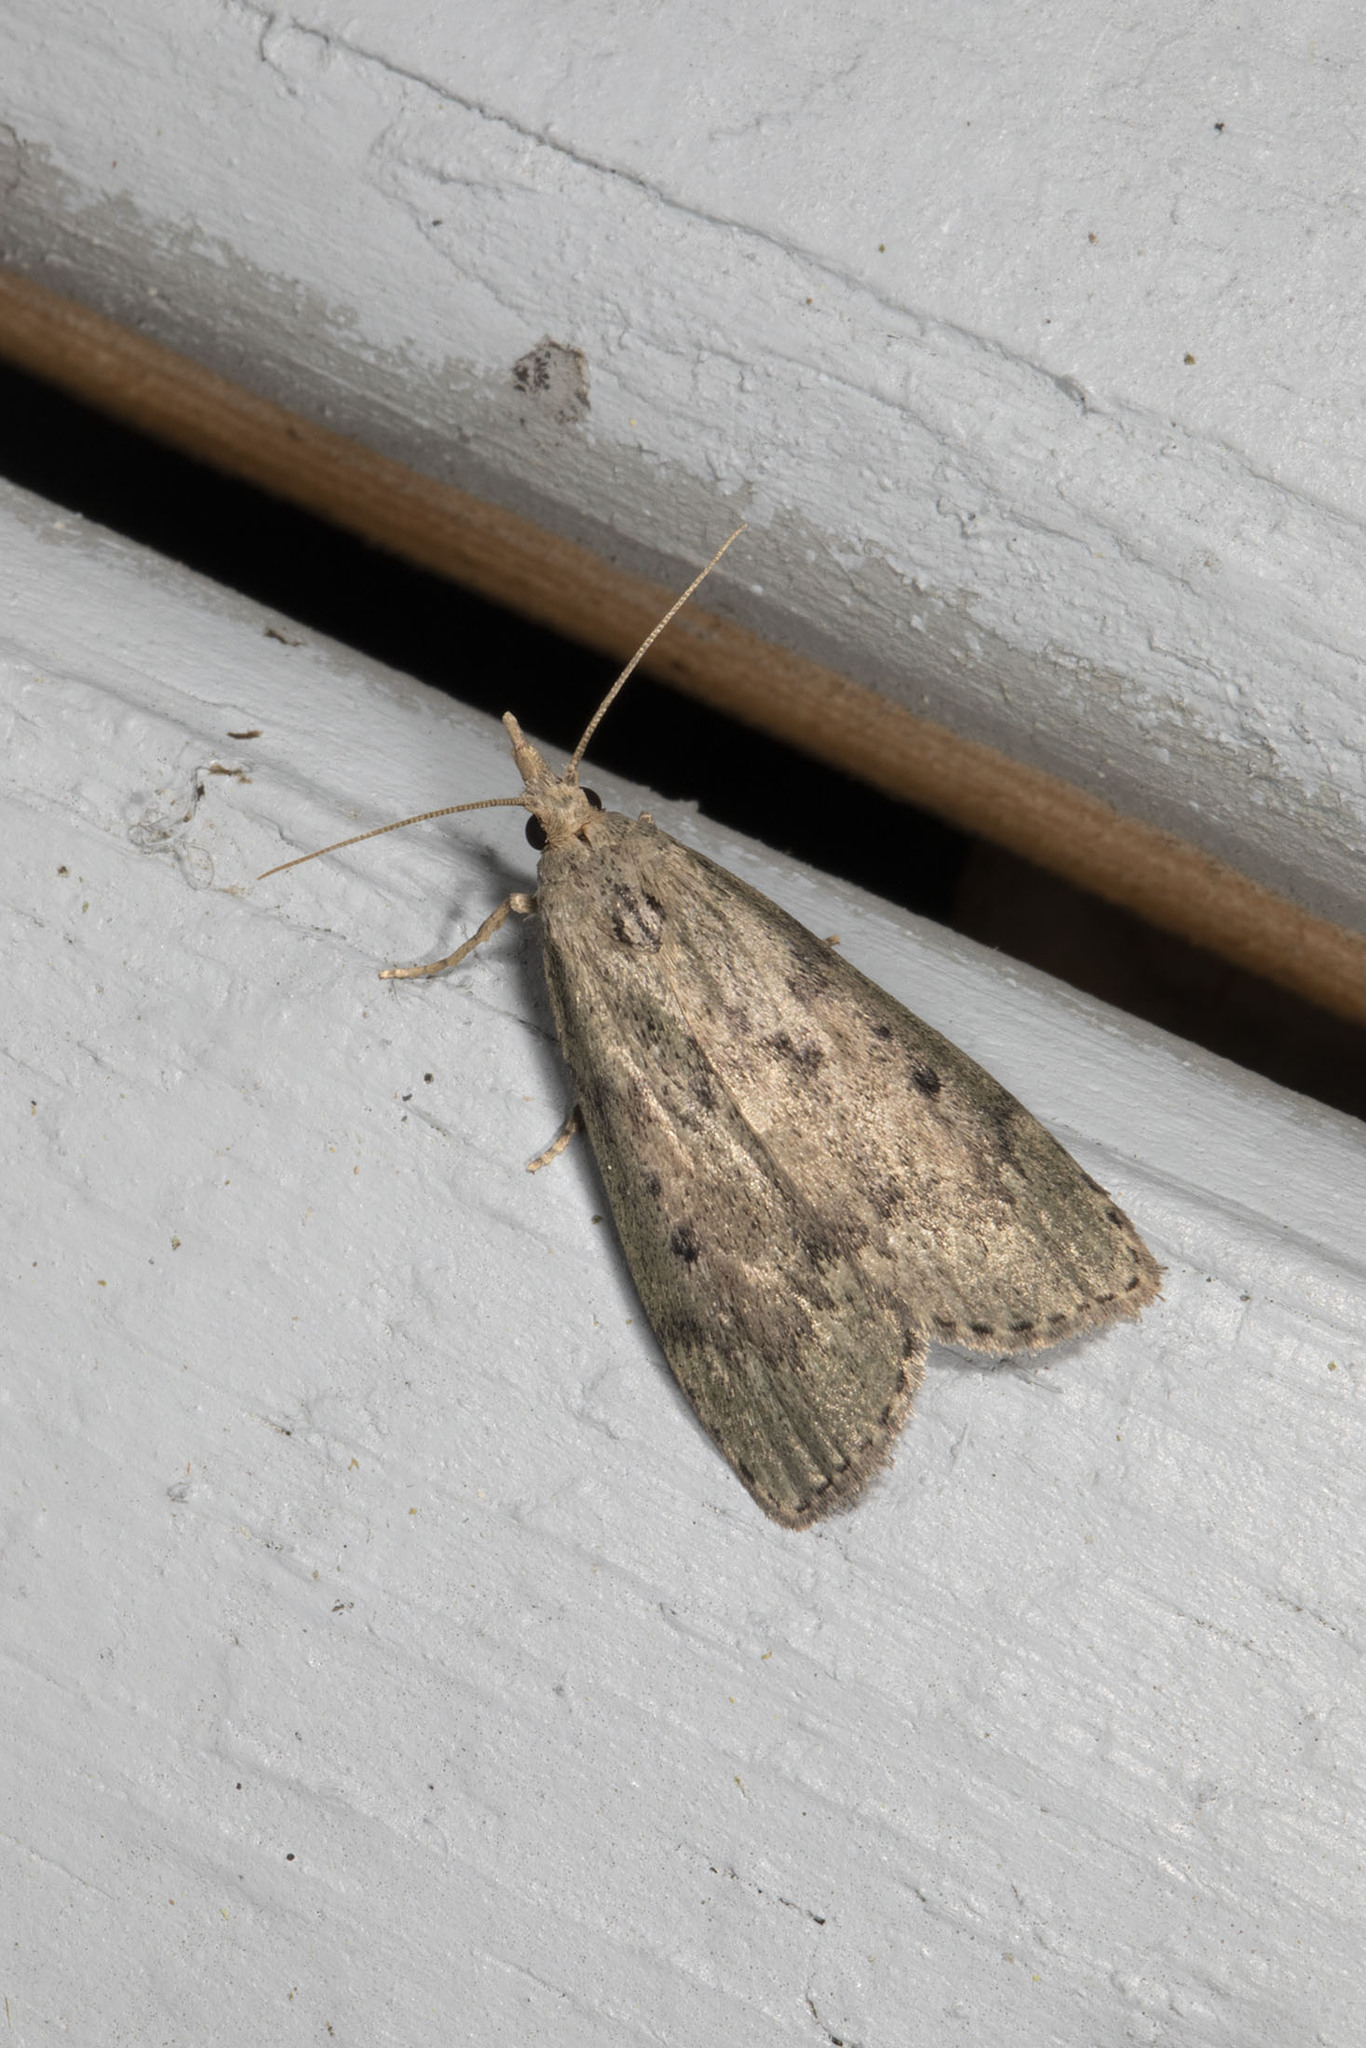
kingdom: Animalia
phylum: Arthropoda
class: Insecta
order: Lepidoptera
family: Pyralidae
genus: Aphomia
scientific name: Aphomia sociella
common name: Bee moth
